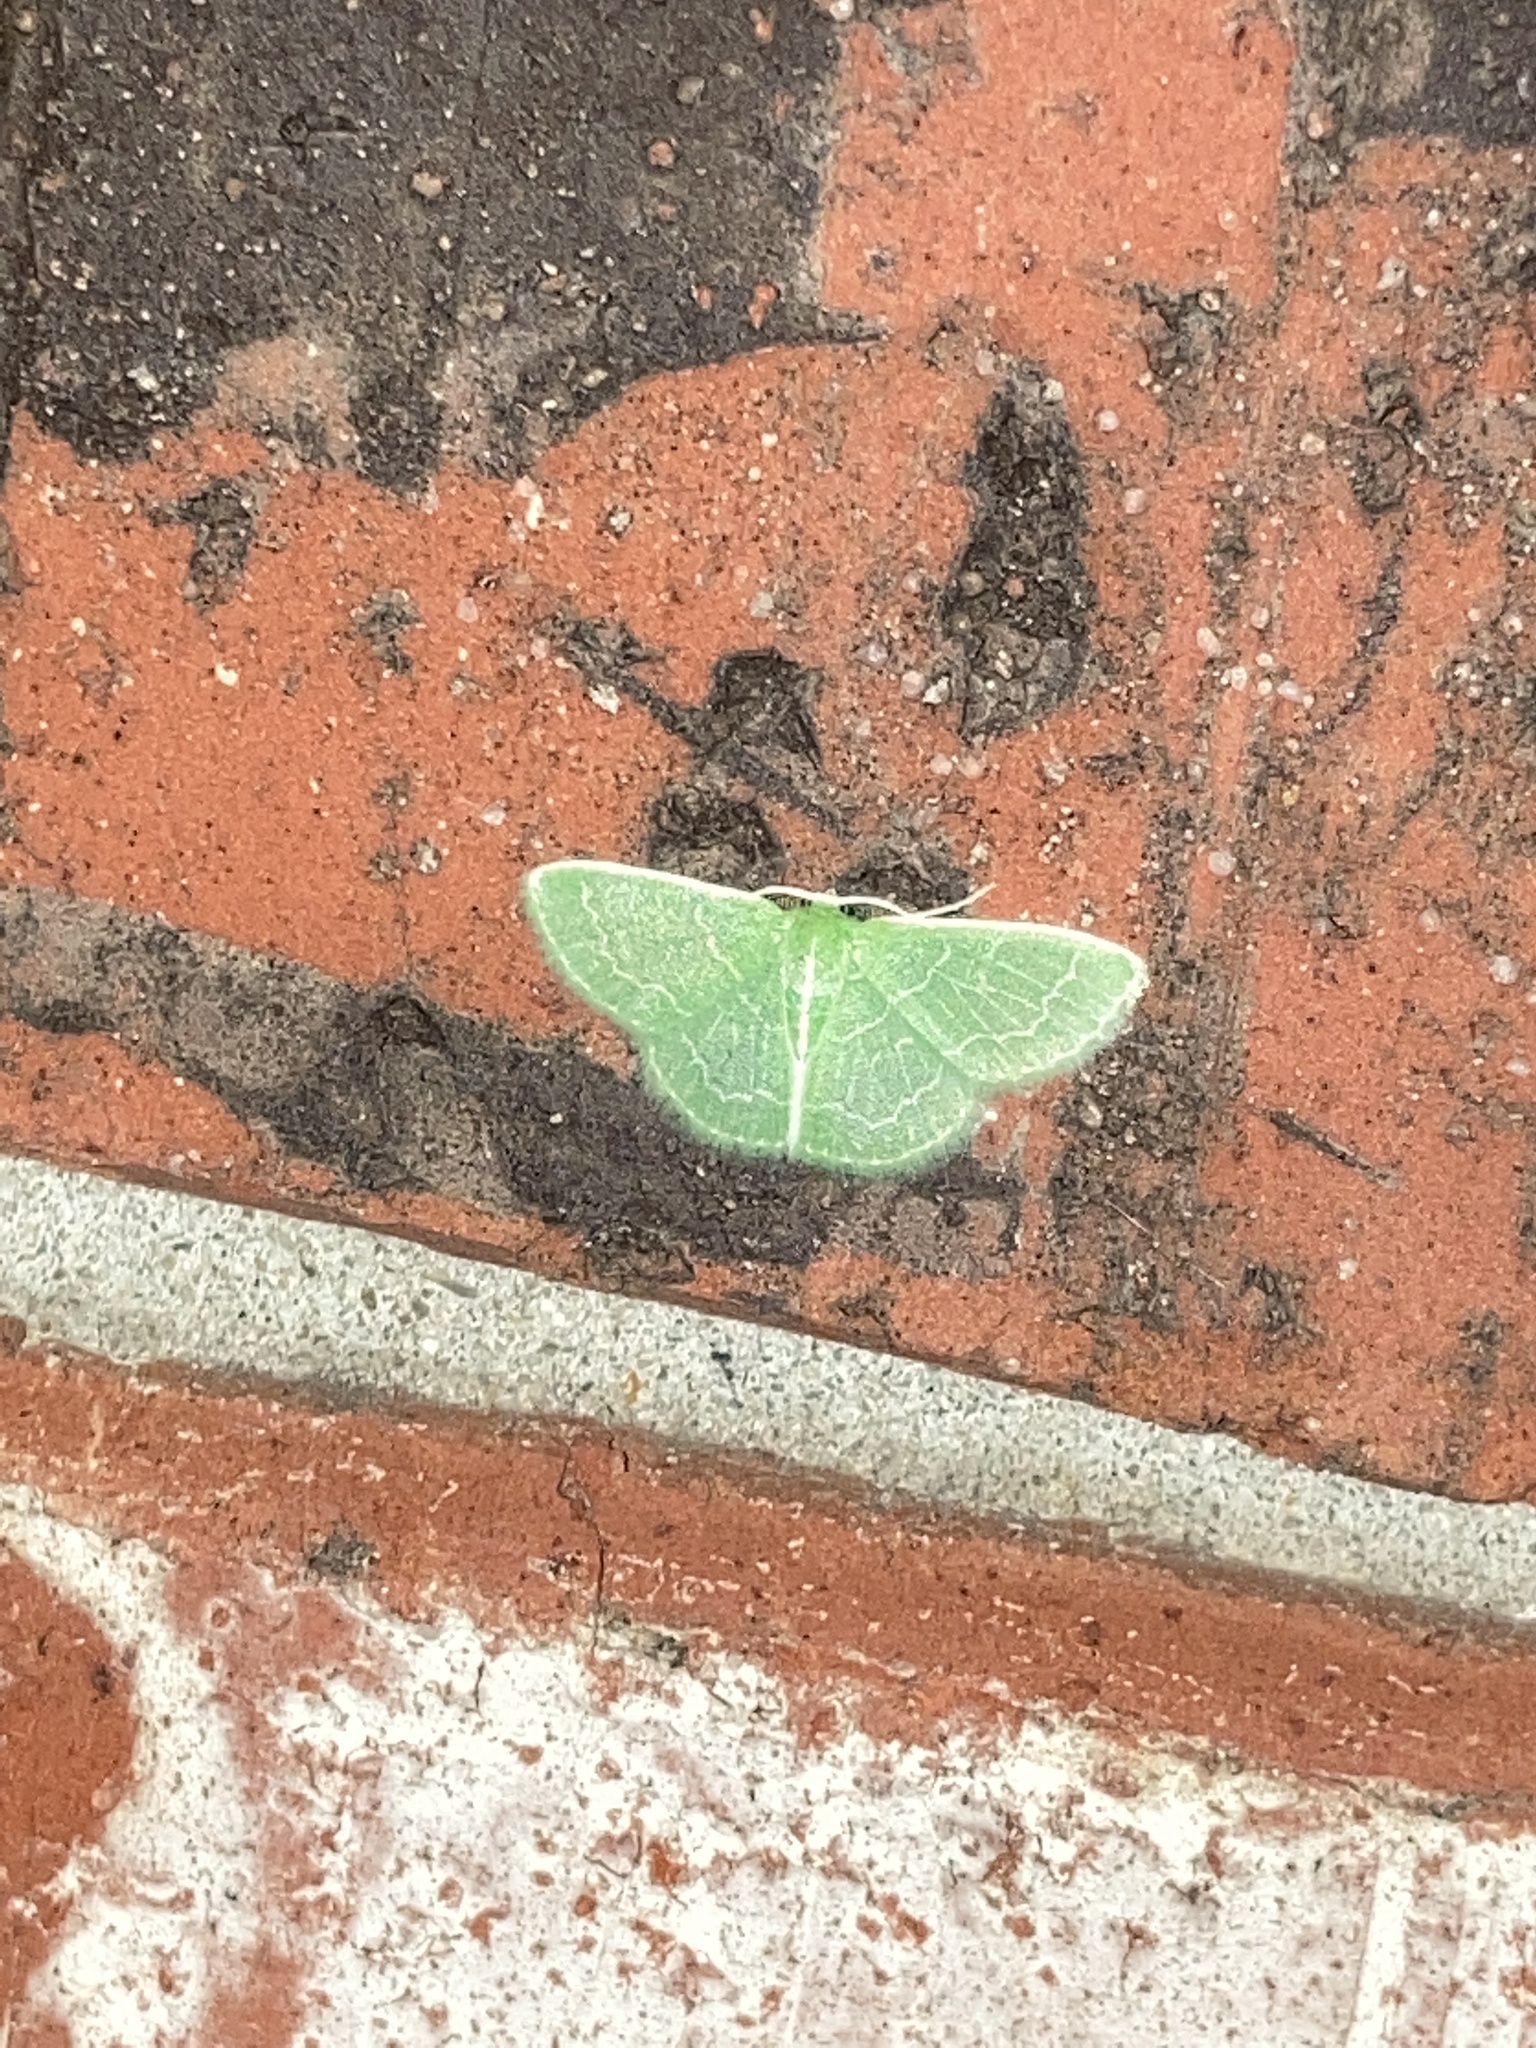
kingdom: Animalia
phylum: Arthropoda
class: Insecta
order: Lepidoptera
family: Geometridae
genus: Synchlora
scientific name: Synchlora aerata
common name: Wavy-lined emerald
